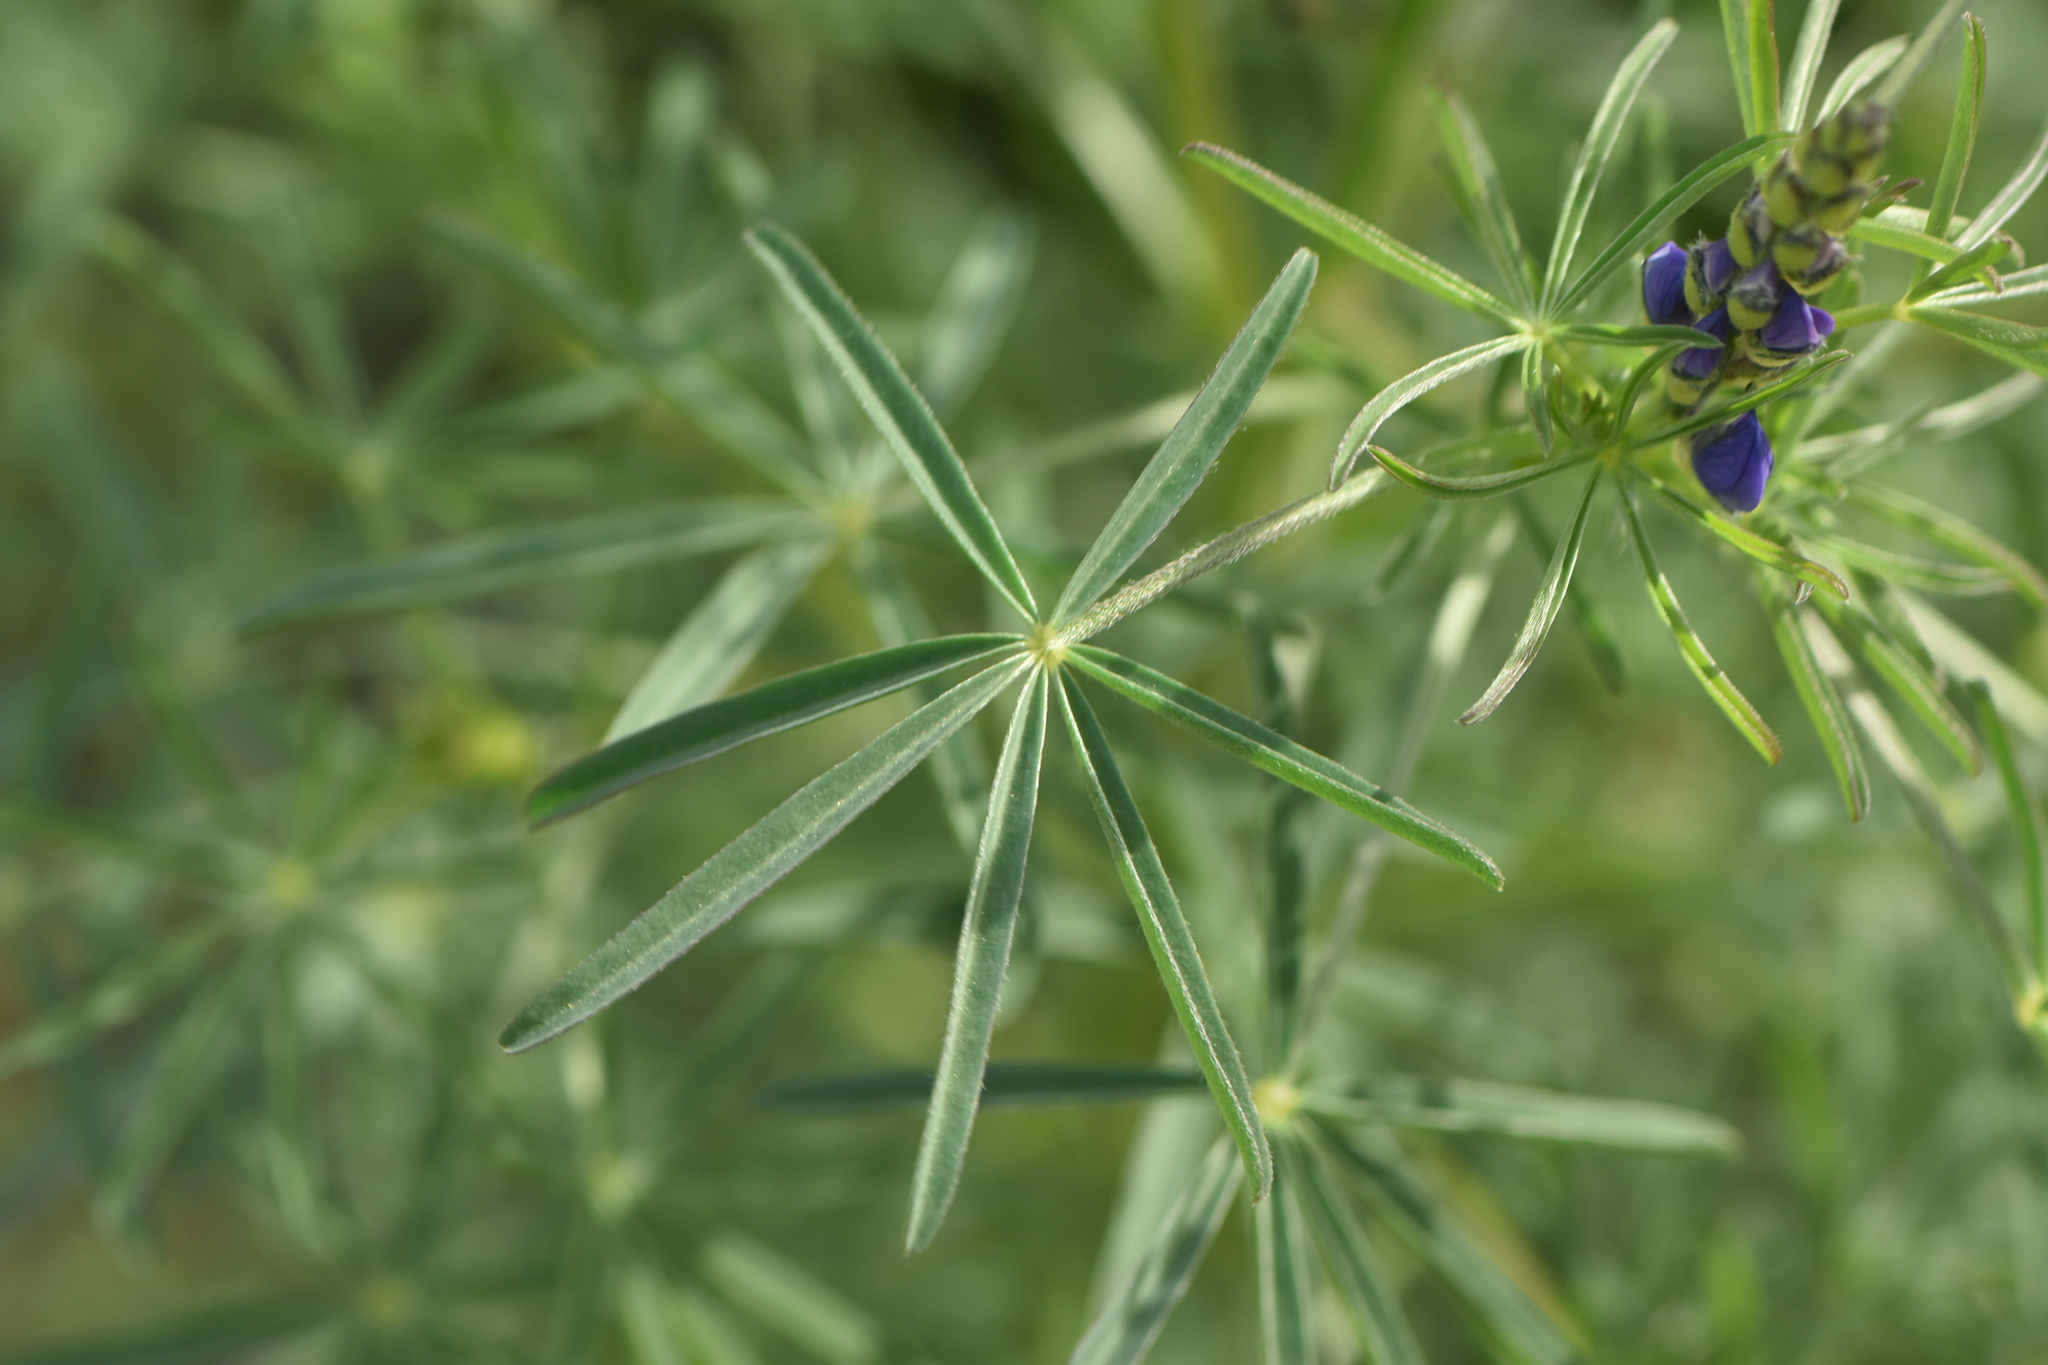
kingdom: Plantae
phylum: Tracheophyta
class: Magnoliopsida
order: Fabales
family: Fabaceae
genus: Lupinus
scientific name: Lupinus angustifolius
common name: Narrow-leaved lupin
